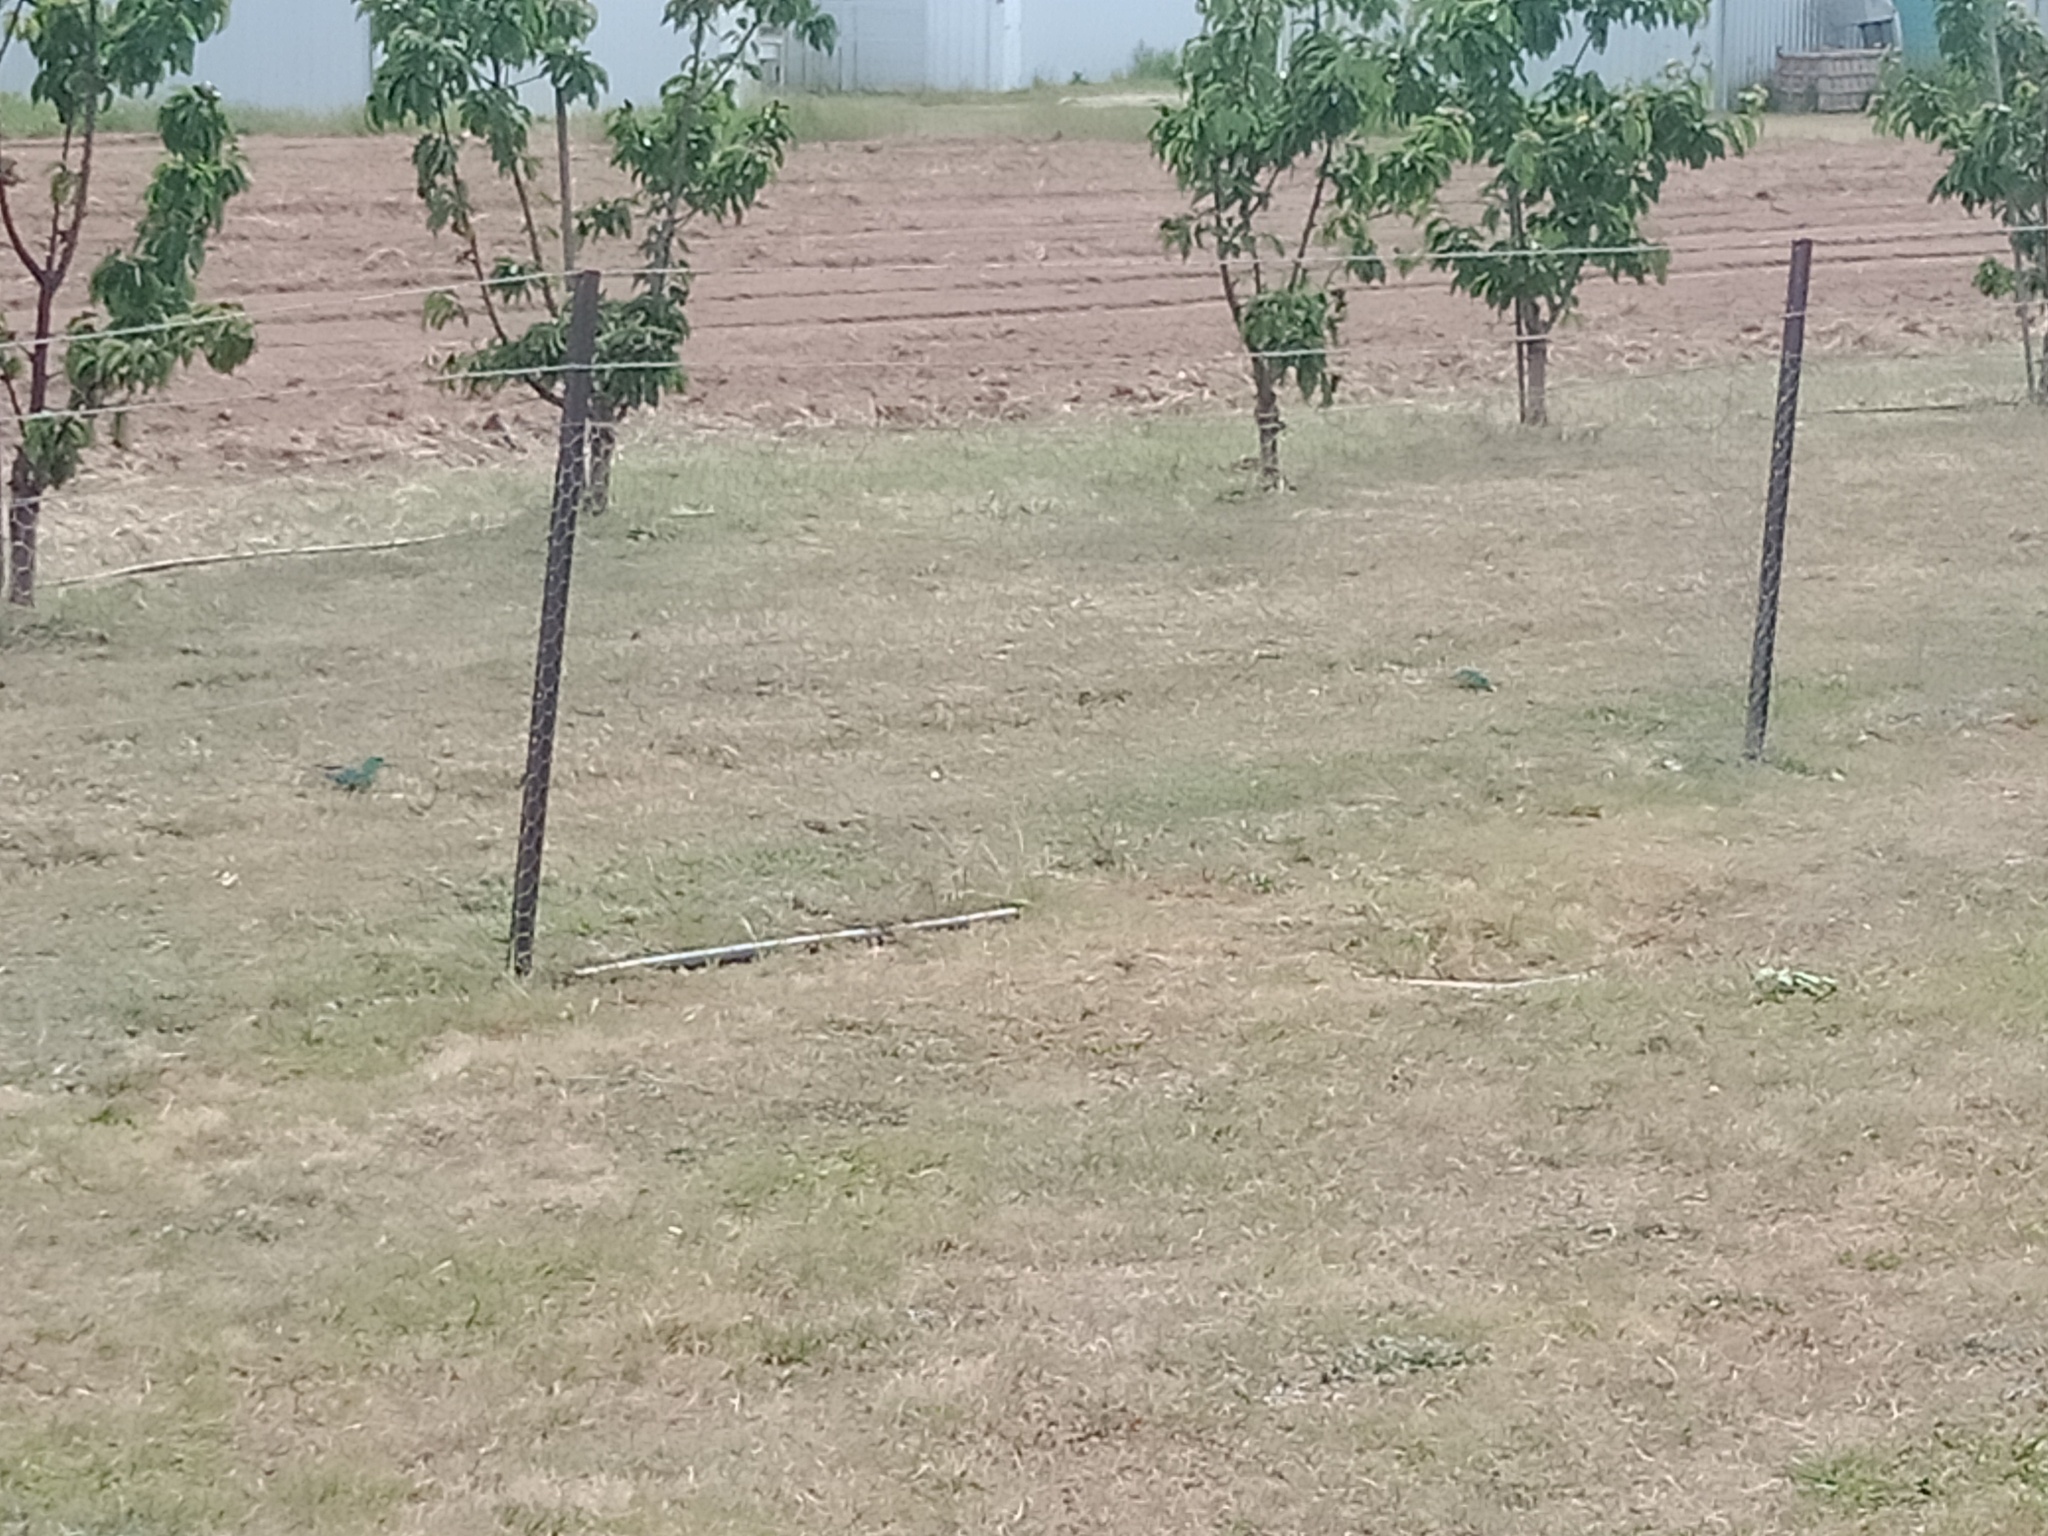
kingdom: Animalia
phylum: Chordata
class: Aves
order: Psittaciformes
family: Psittacidae
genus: Psephotus
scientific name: Psephotus haematonotus
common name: Red-rumped parrot
